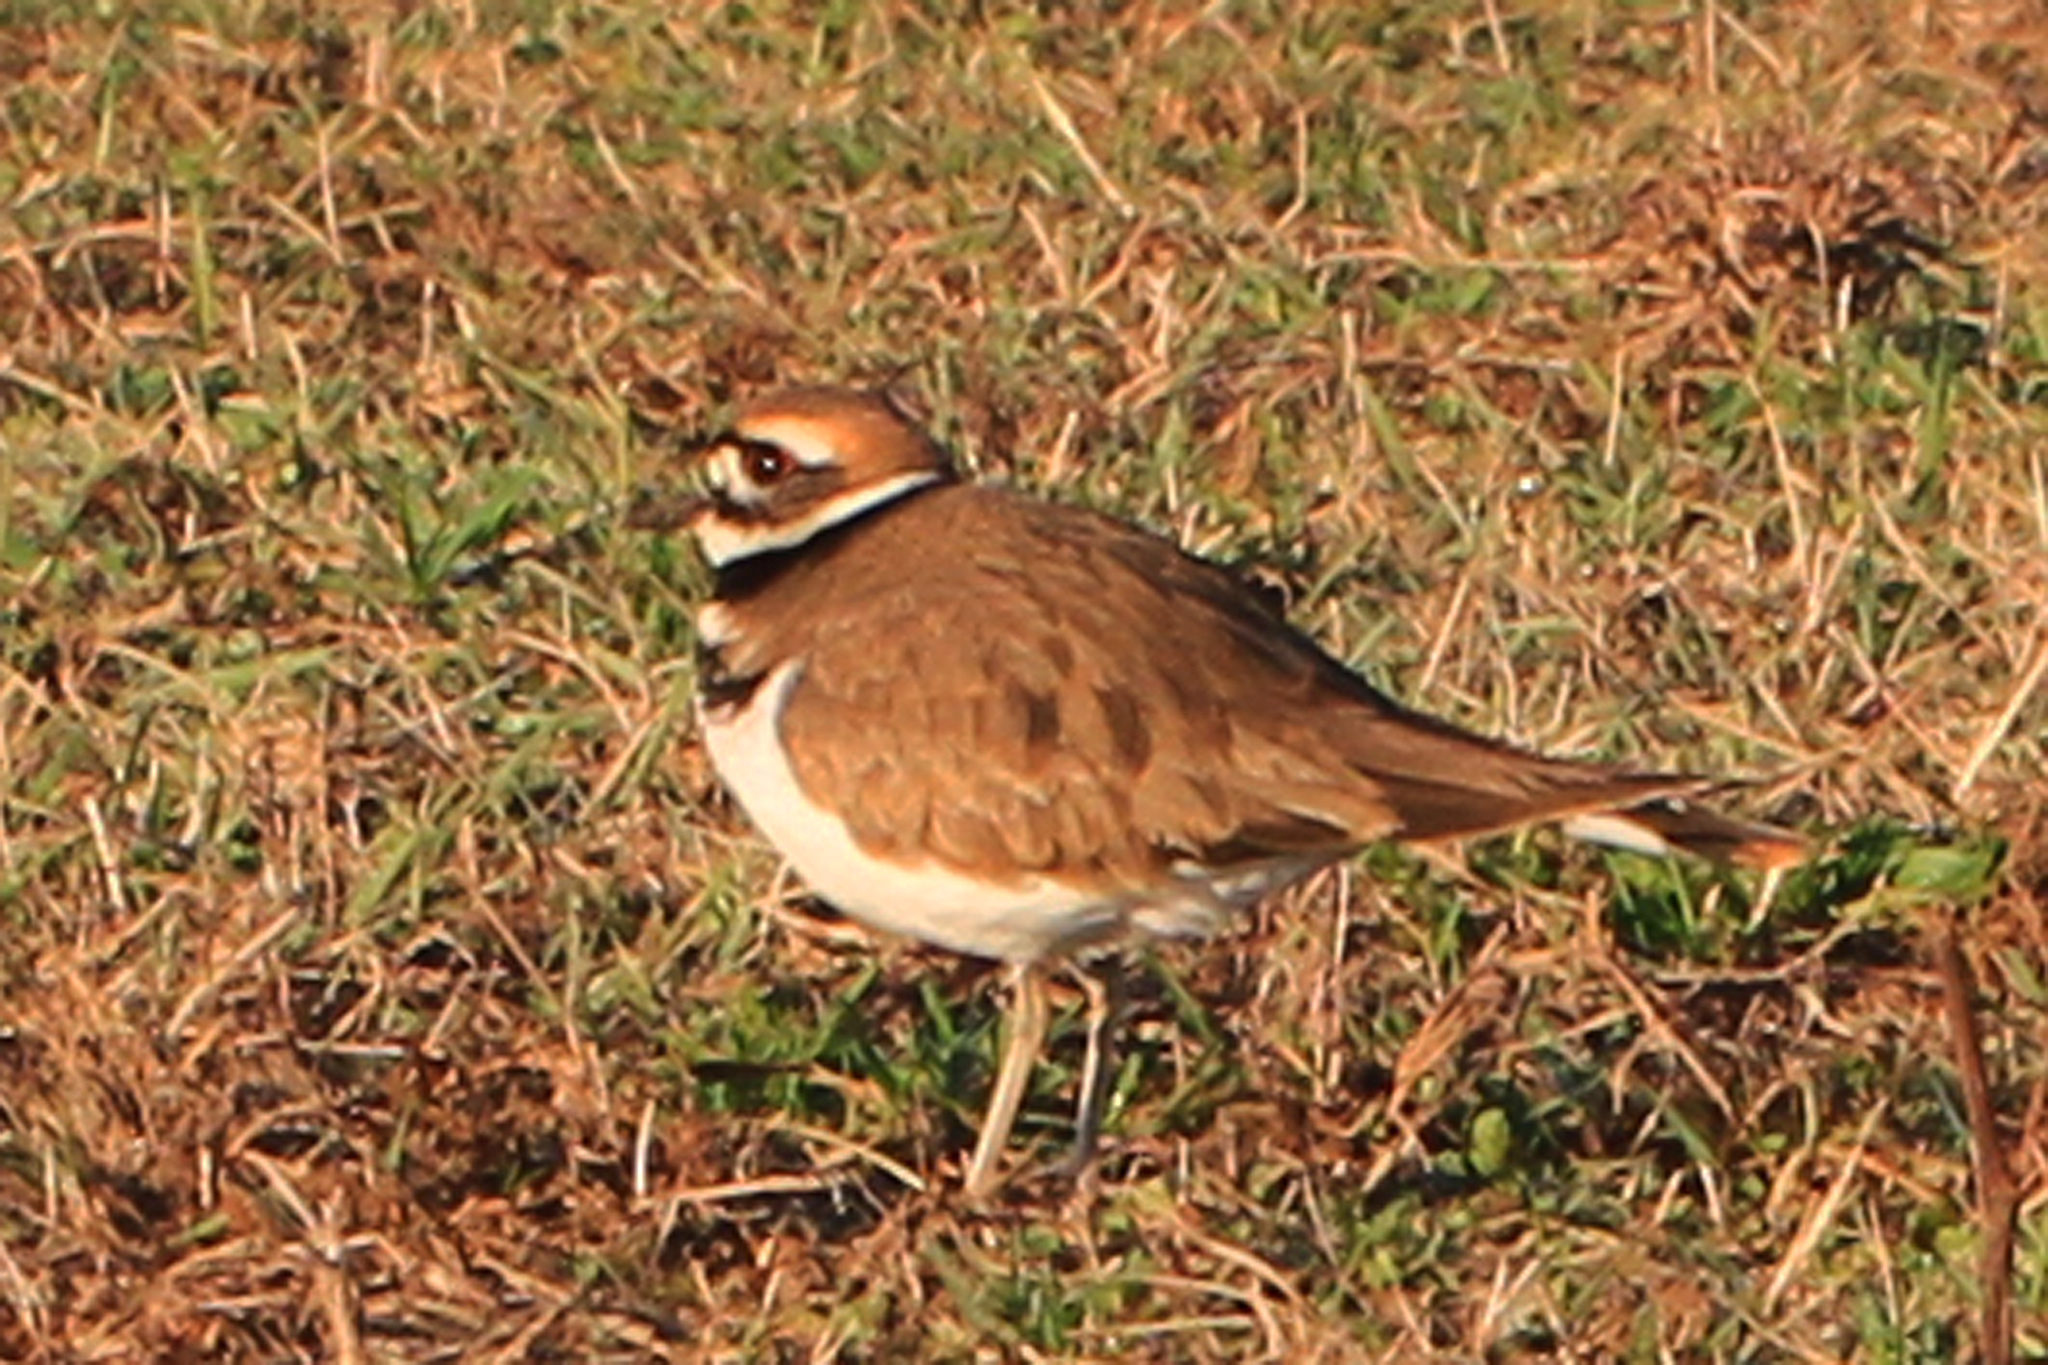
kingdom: Animalia
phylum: Chordata
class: Aves
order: Charadriiformes
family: Charadriidae
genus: Charadrius
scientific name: Charadrius vociferus
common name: Killdeer
